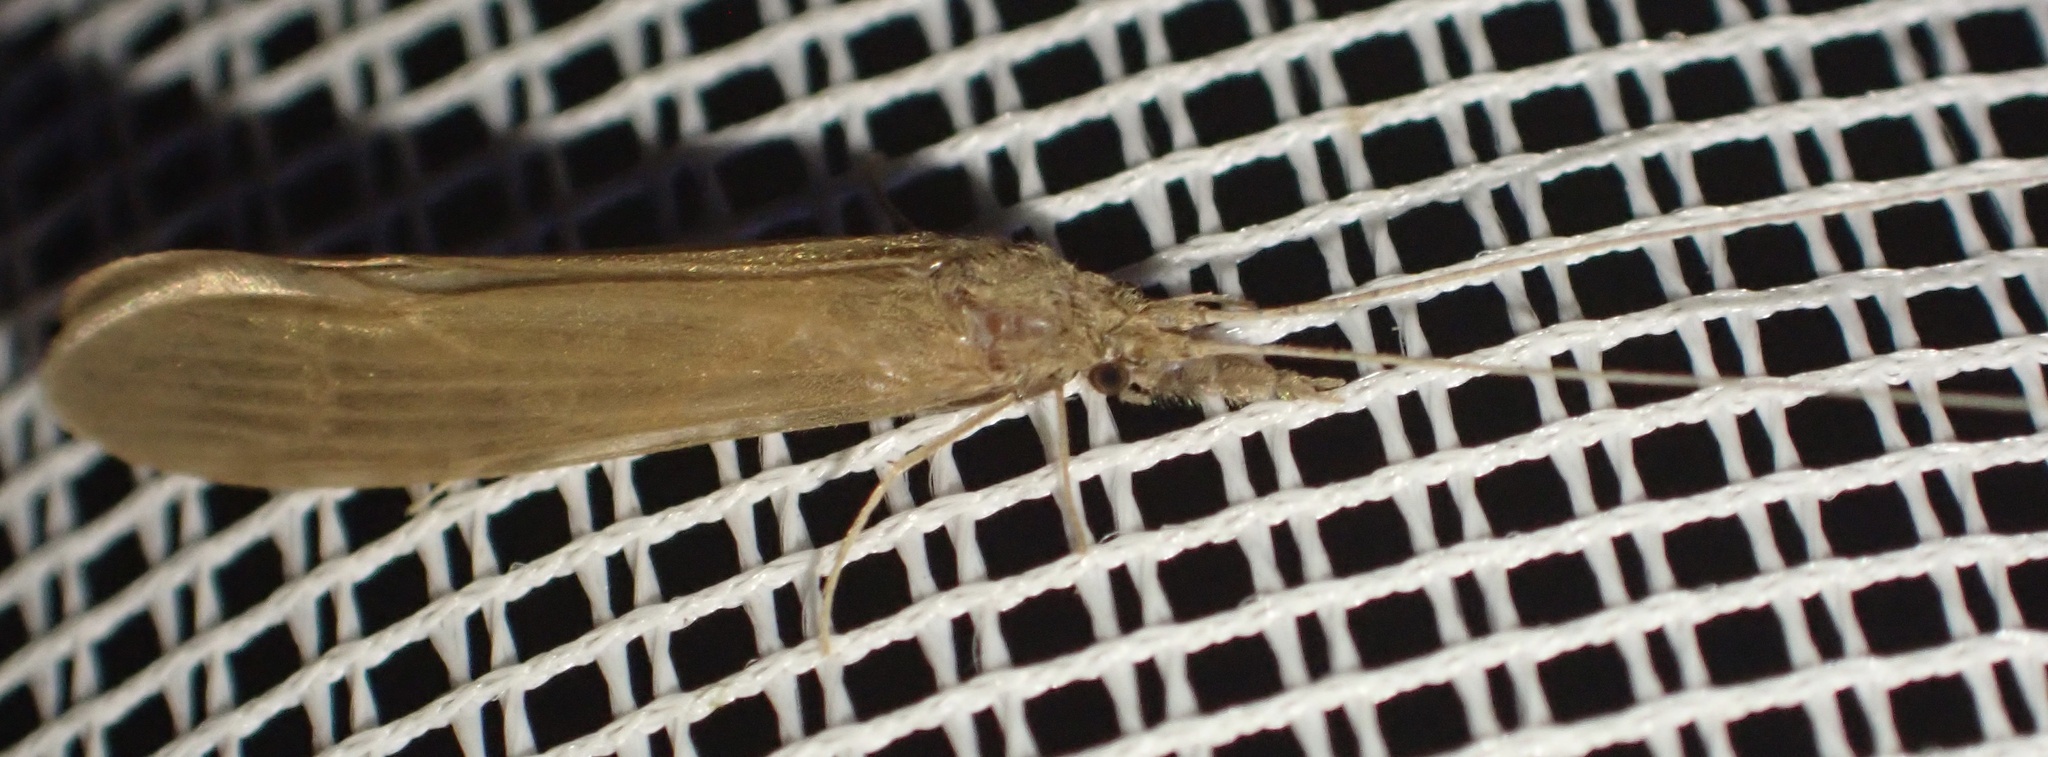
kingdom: Animalia
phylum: Arthropoda
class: Insecta
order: Trichoptera
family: Leptoceridae
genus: Oecetis
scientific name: Oecetis ochracea
